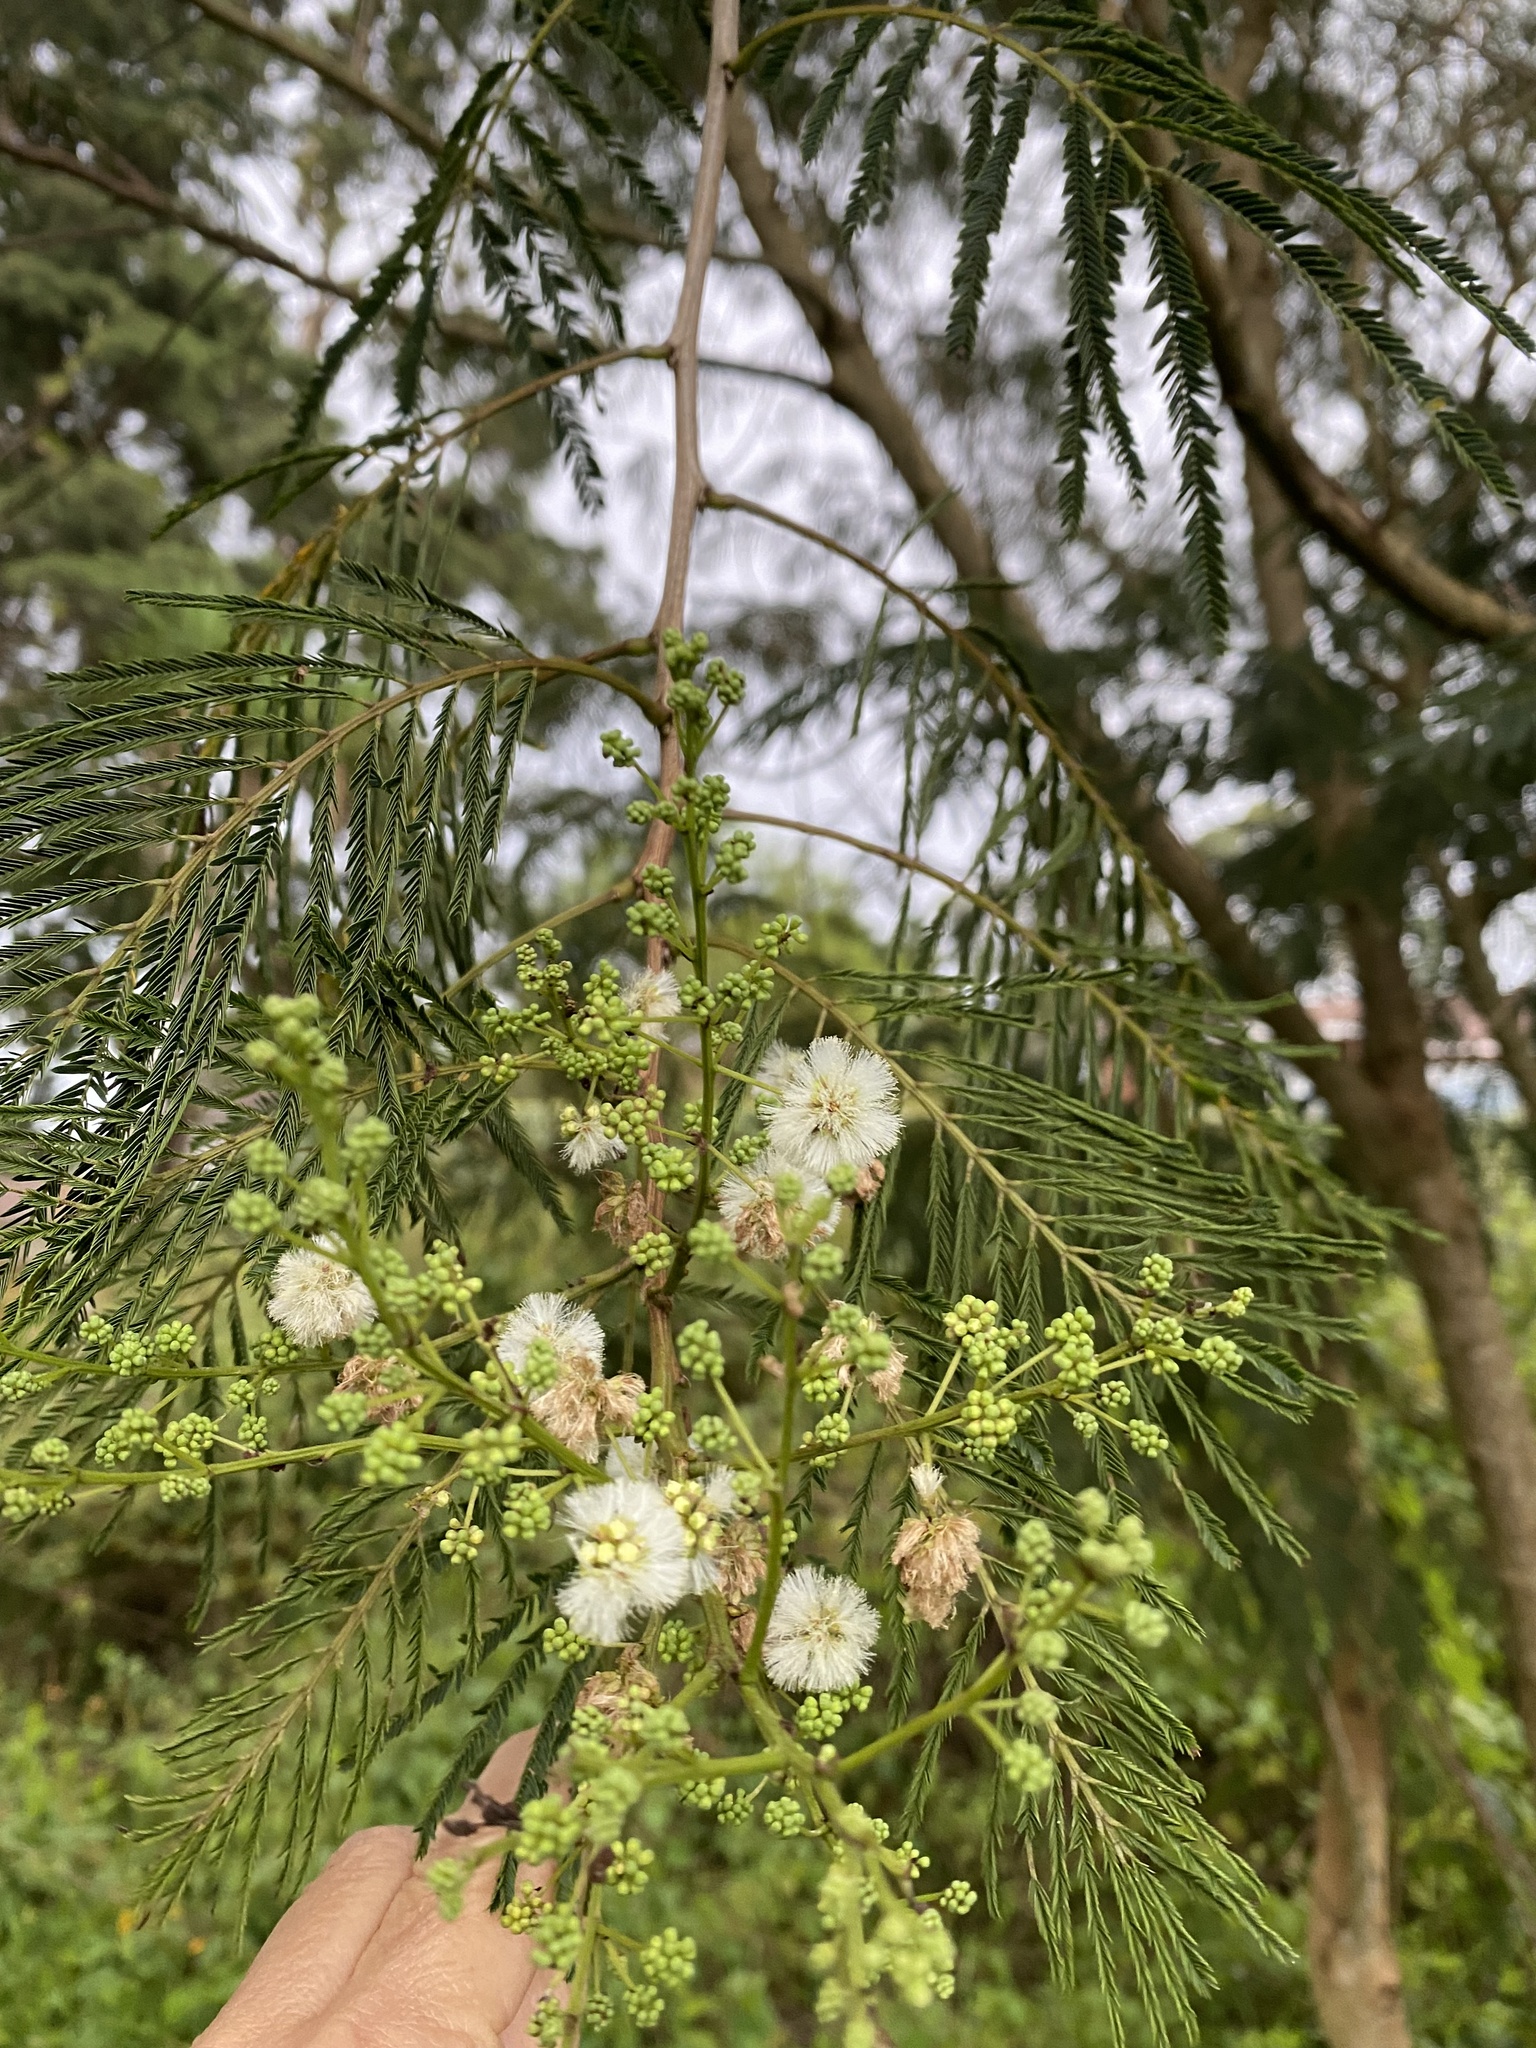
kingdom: Plantae
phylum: Tracheophyta
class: Magnoliopsida
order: Fabales
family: Fabaceae
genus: Acaciella
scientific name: Acaciella angustissima
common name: Prairie acacia
